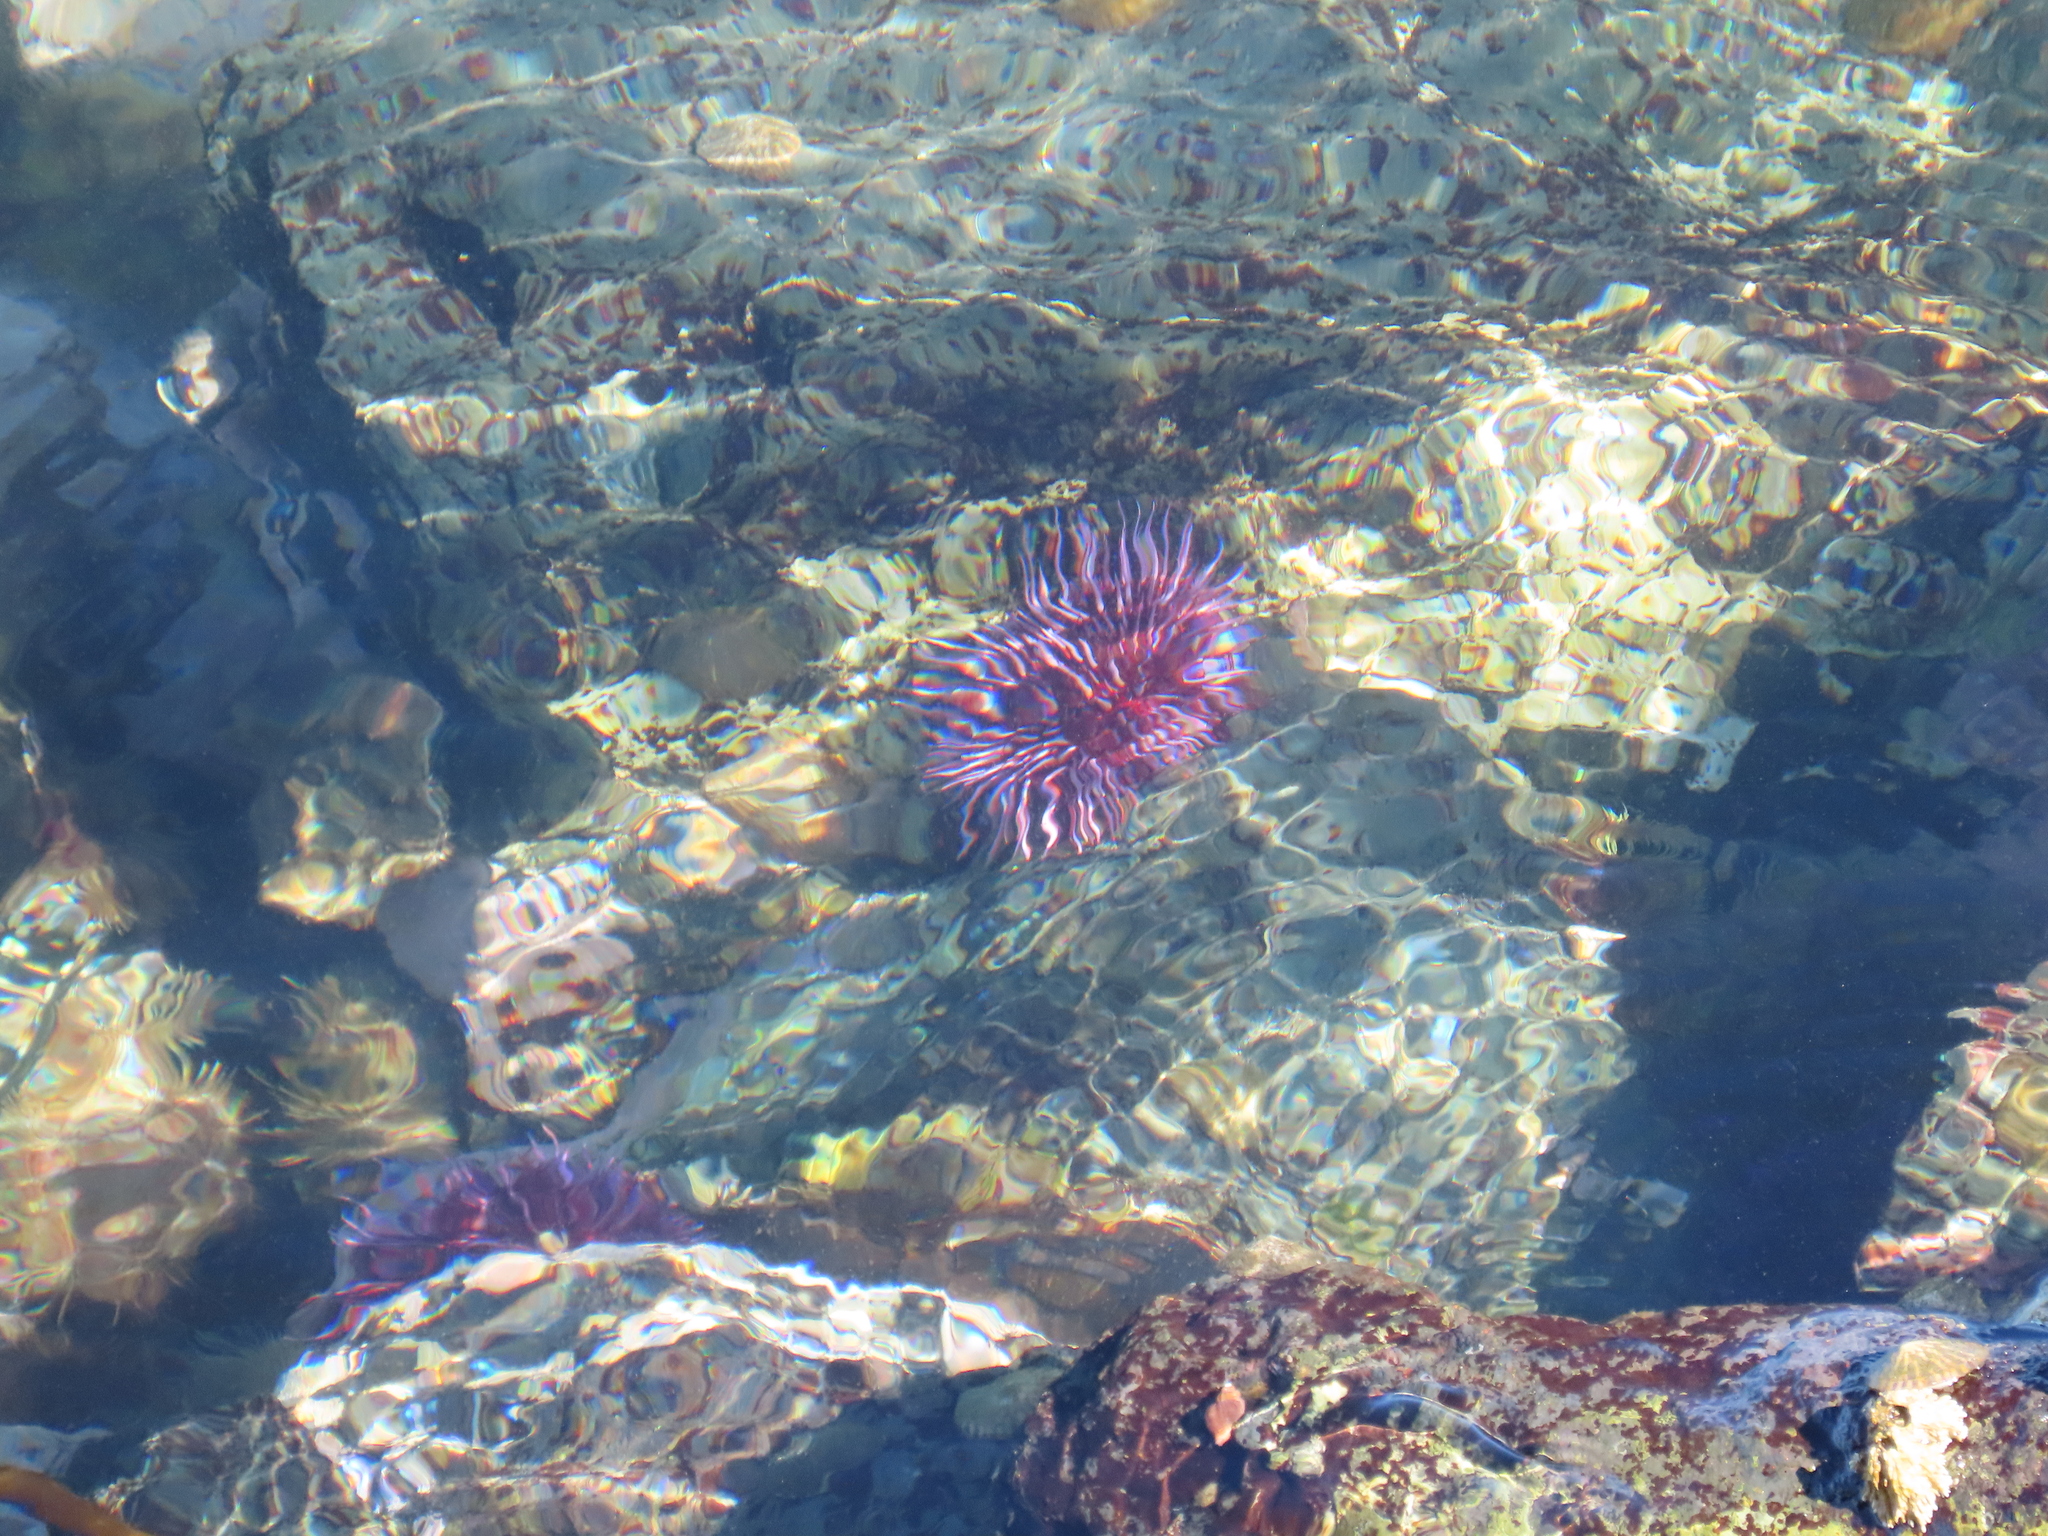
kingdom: Animalia
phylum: Echinodermata
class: Echinoidea
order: Camarodonta
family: Strongylocentrotidae
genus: Strongylocentrotus
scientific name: Strongylocentrotus purpuratus
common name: Purple sea urchin
